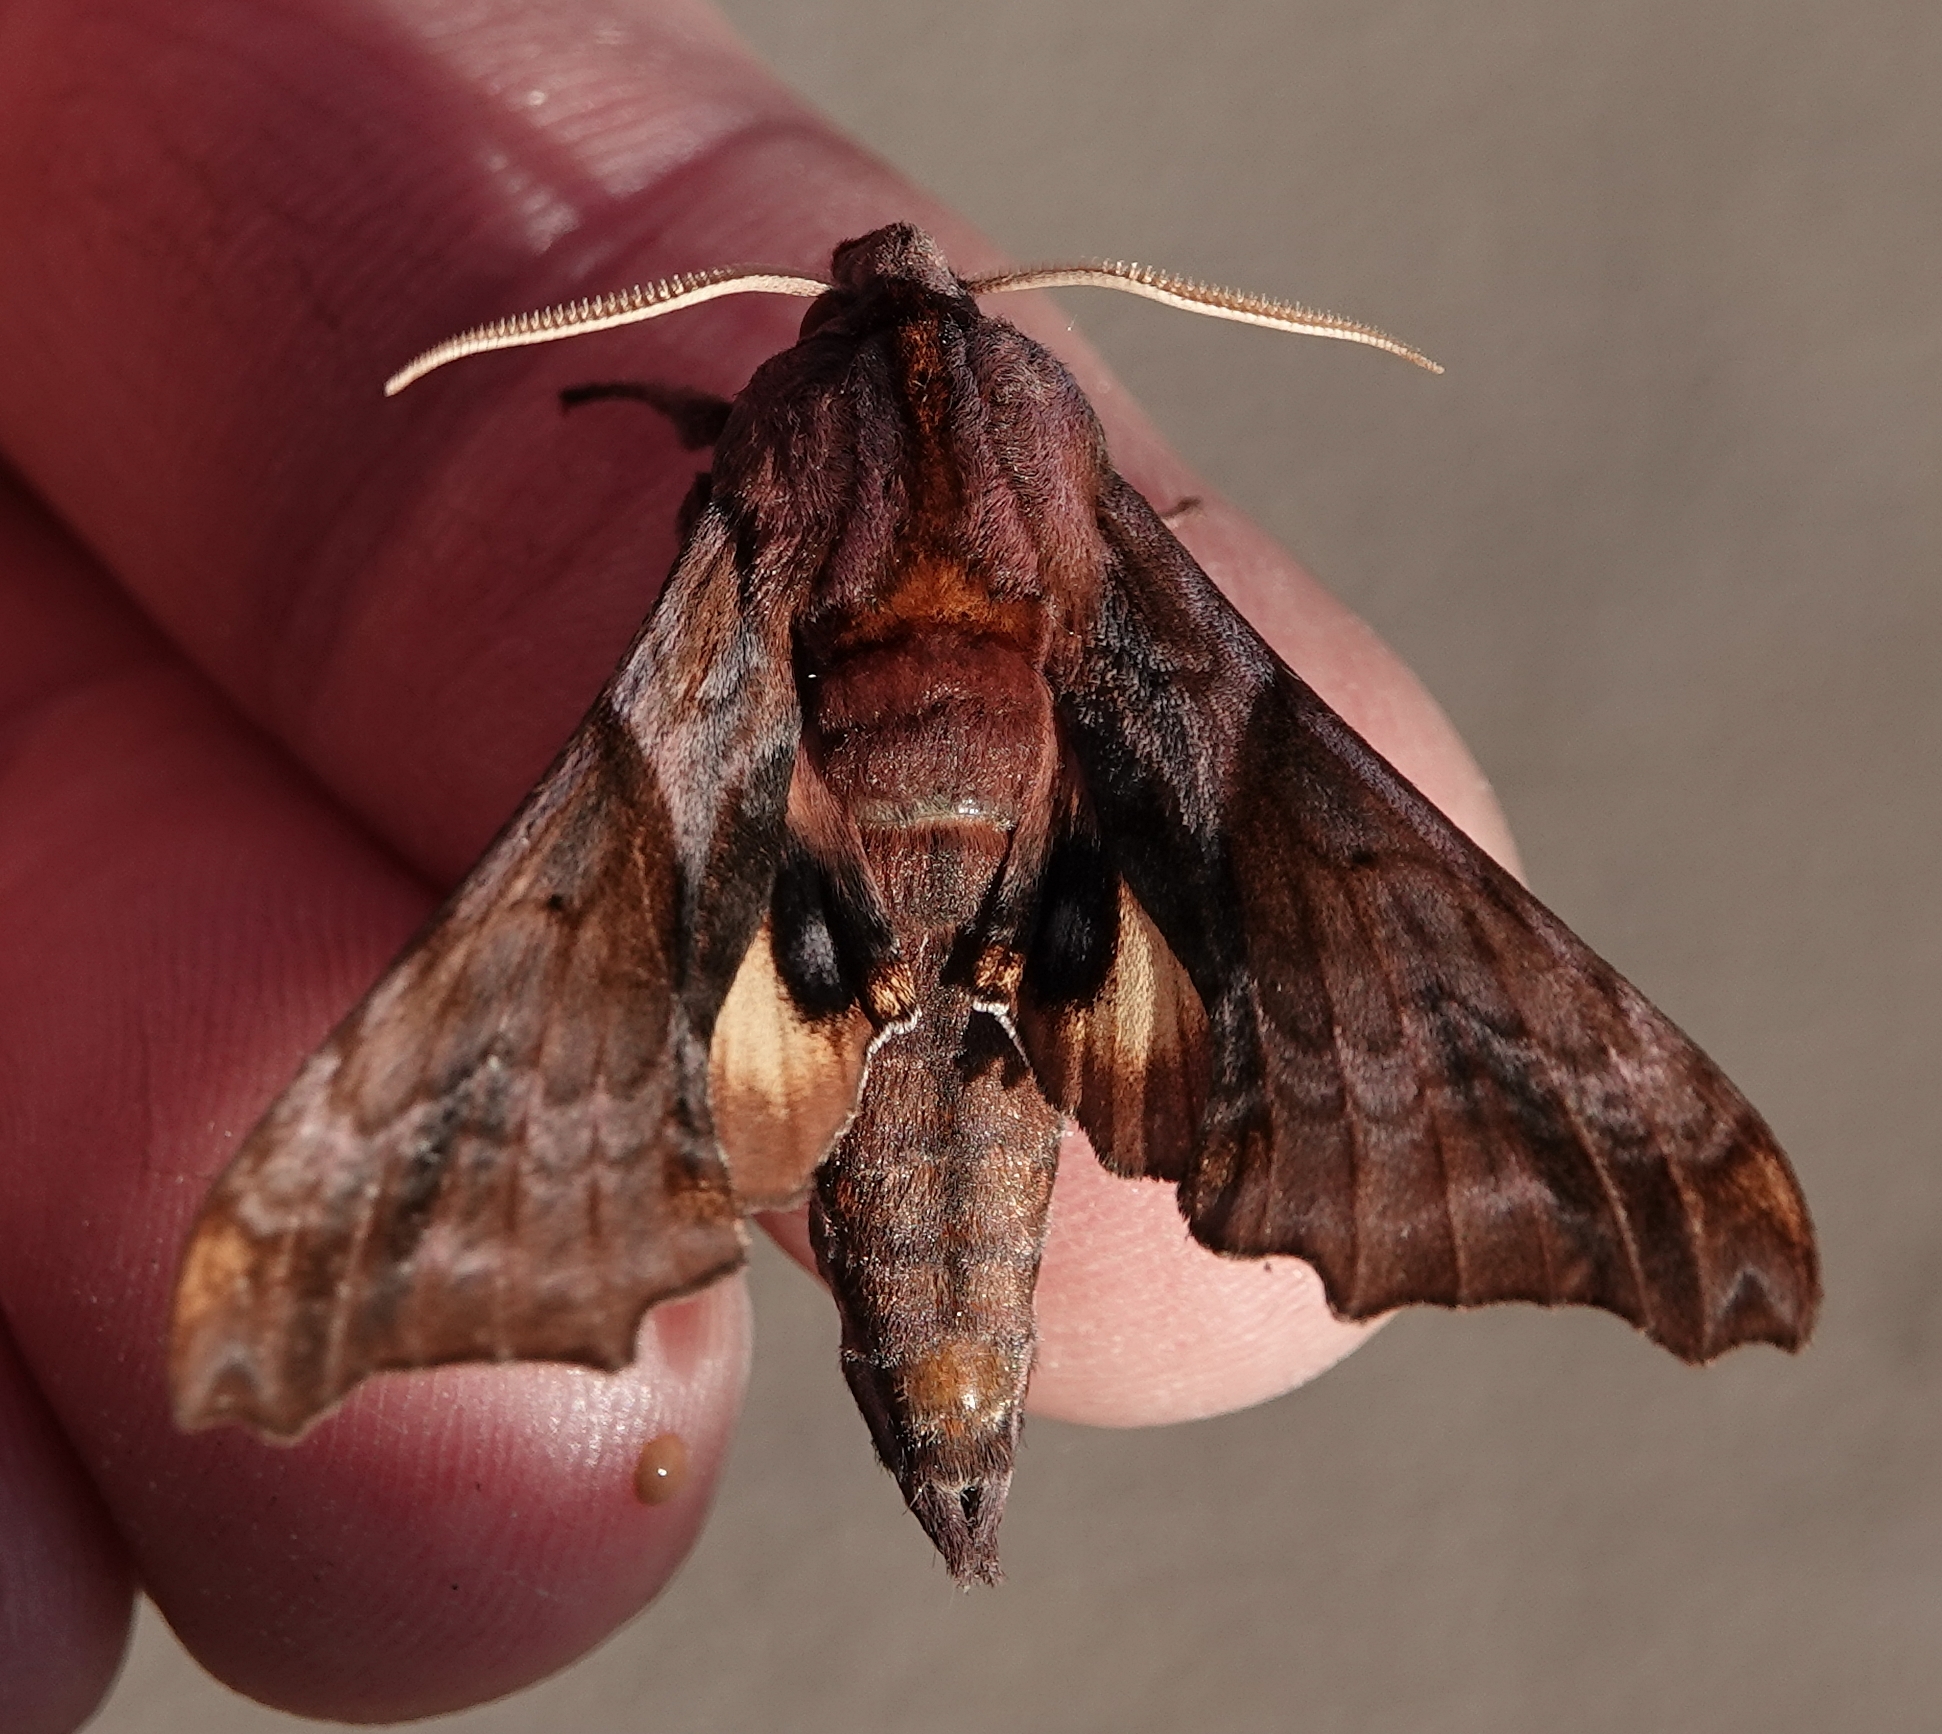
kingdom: Animalia
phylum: Arthropoda
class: Insecta
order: Lepidoptera
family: Sphingidae
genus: Paonias
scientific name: Paonias myops
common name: Small-eyed sphinx
